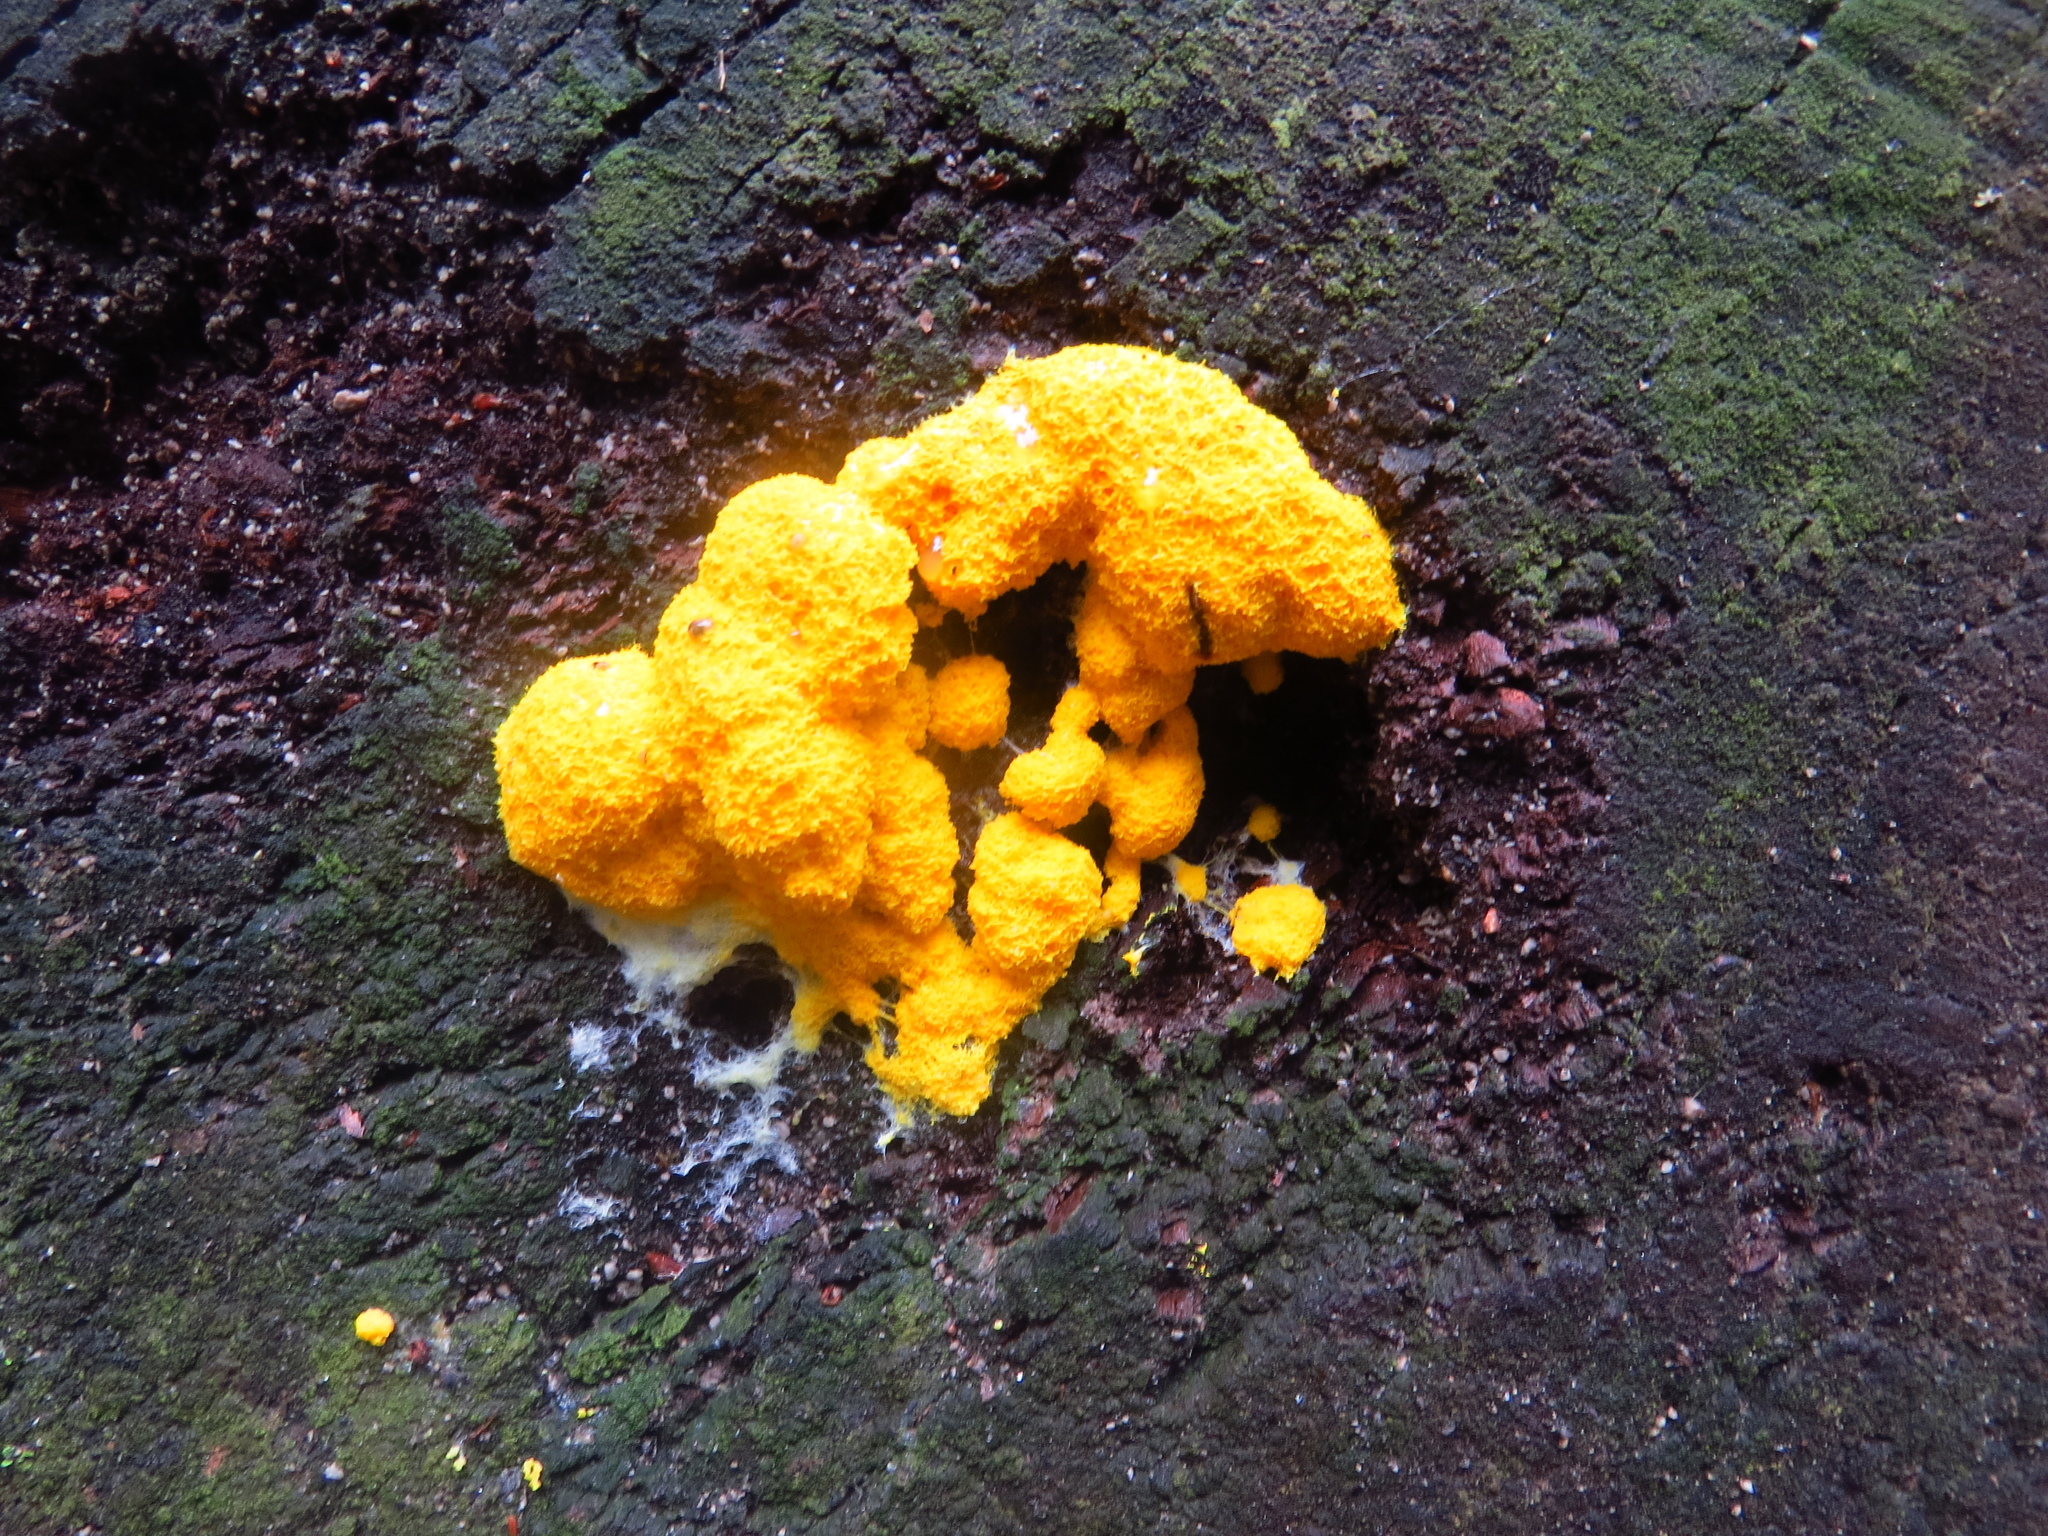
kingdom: Protozoa
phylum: Mycetozoa
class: Myxomycetes
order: Physarales
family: Physaraceae
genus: Fuligo
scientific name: Fuligo septica
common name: Dog vomit slime mold
